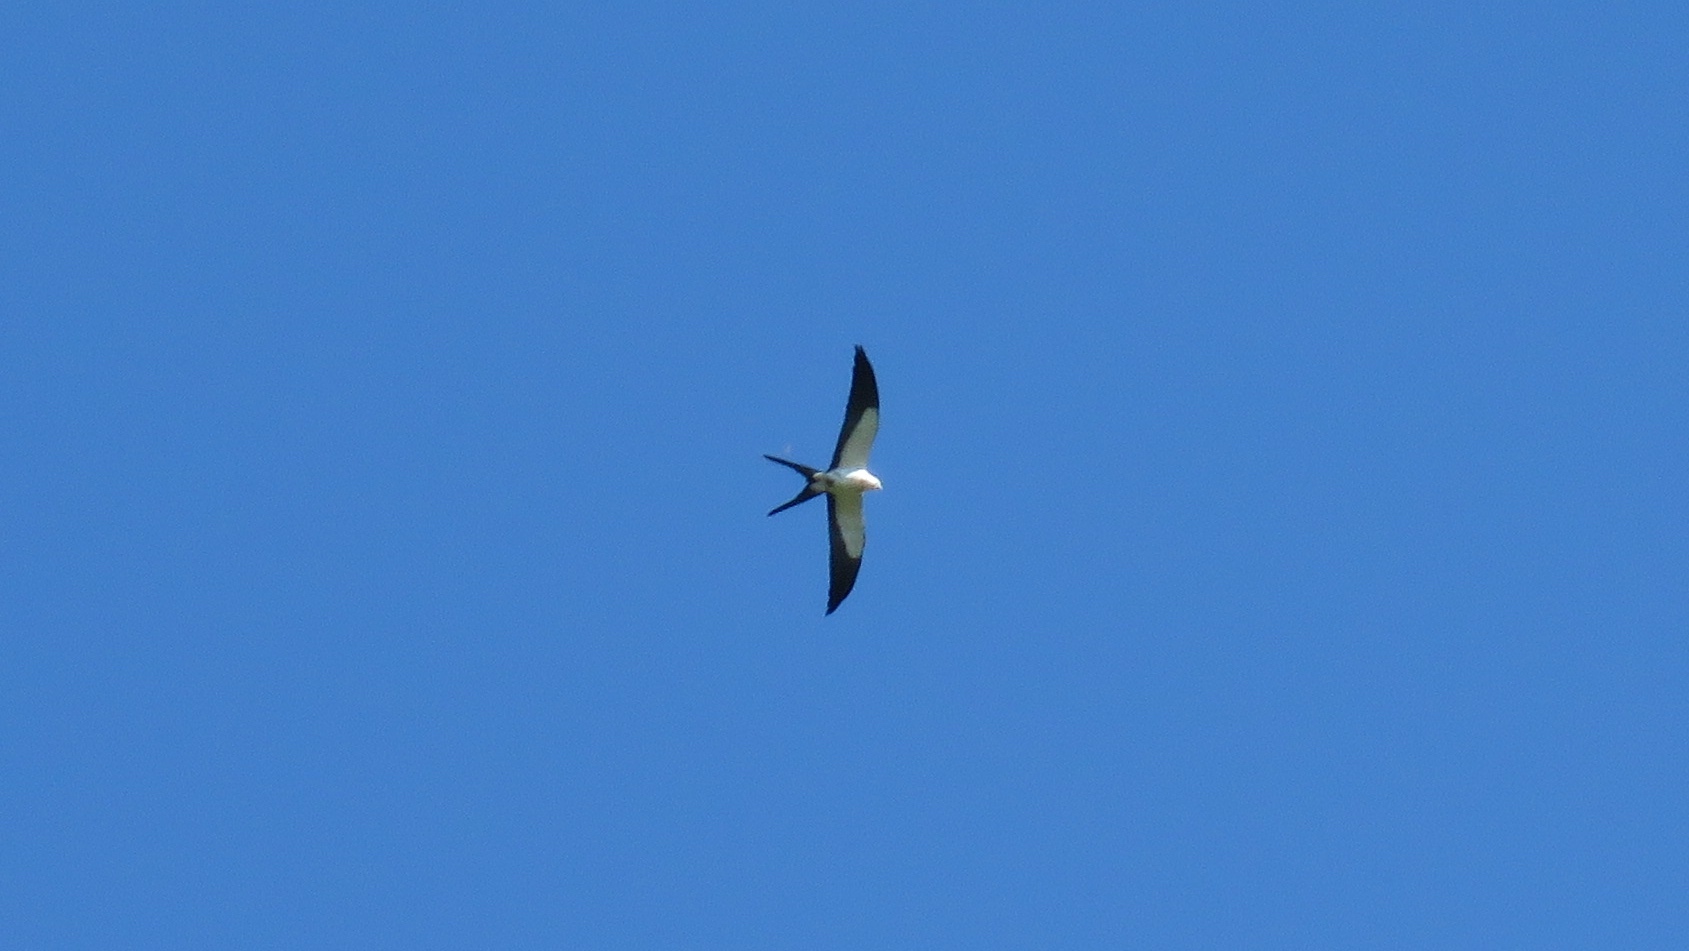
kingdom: Animalia
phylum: Chordata
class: Aves
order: Accipitriformes
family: Accipitridae
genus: Elanoides
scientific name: Elanoides forficatus
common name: Swallow-tailed kite
